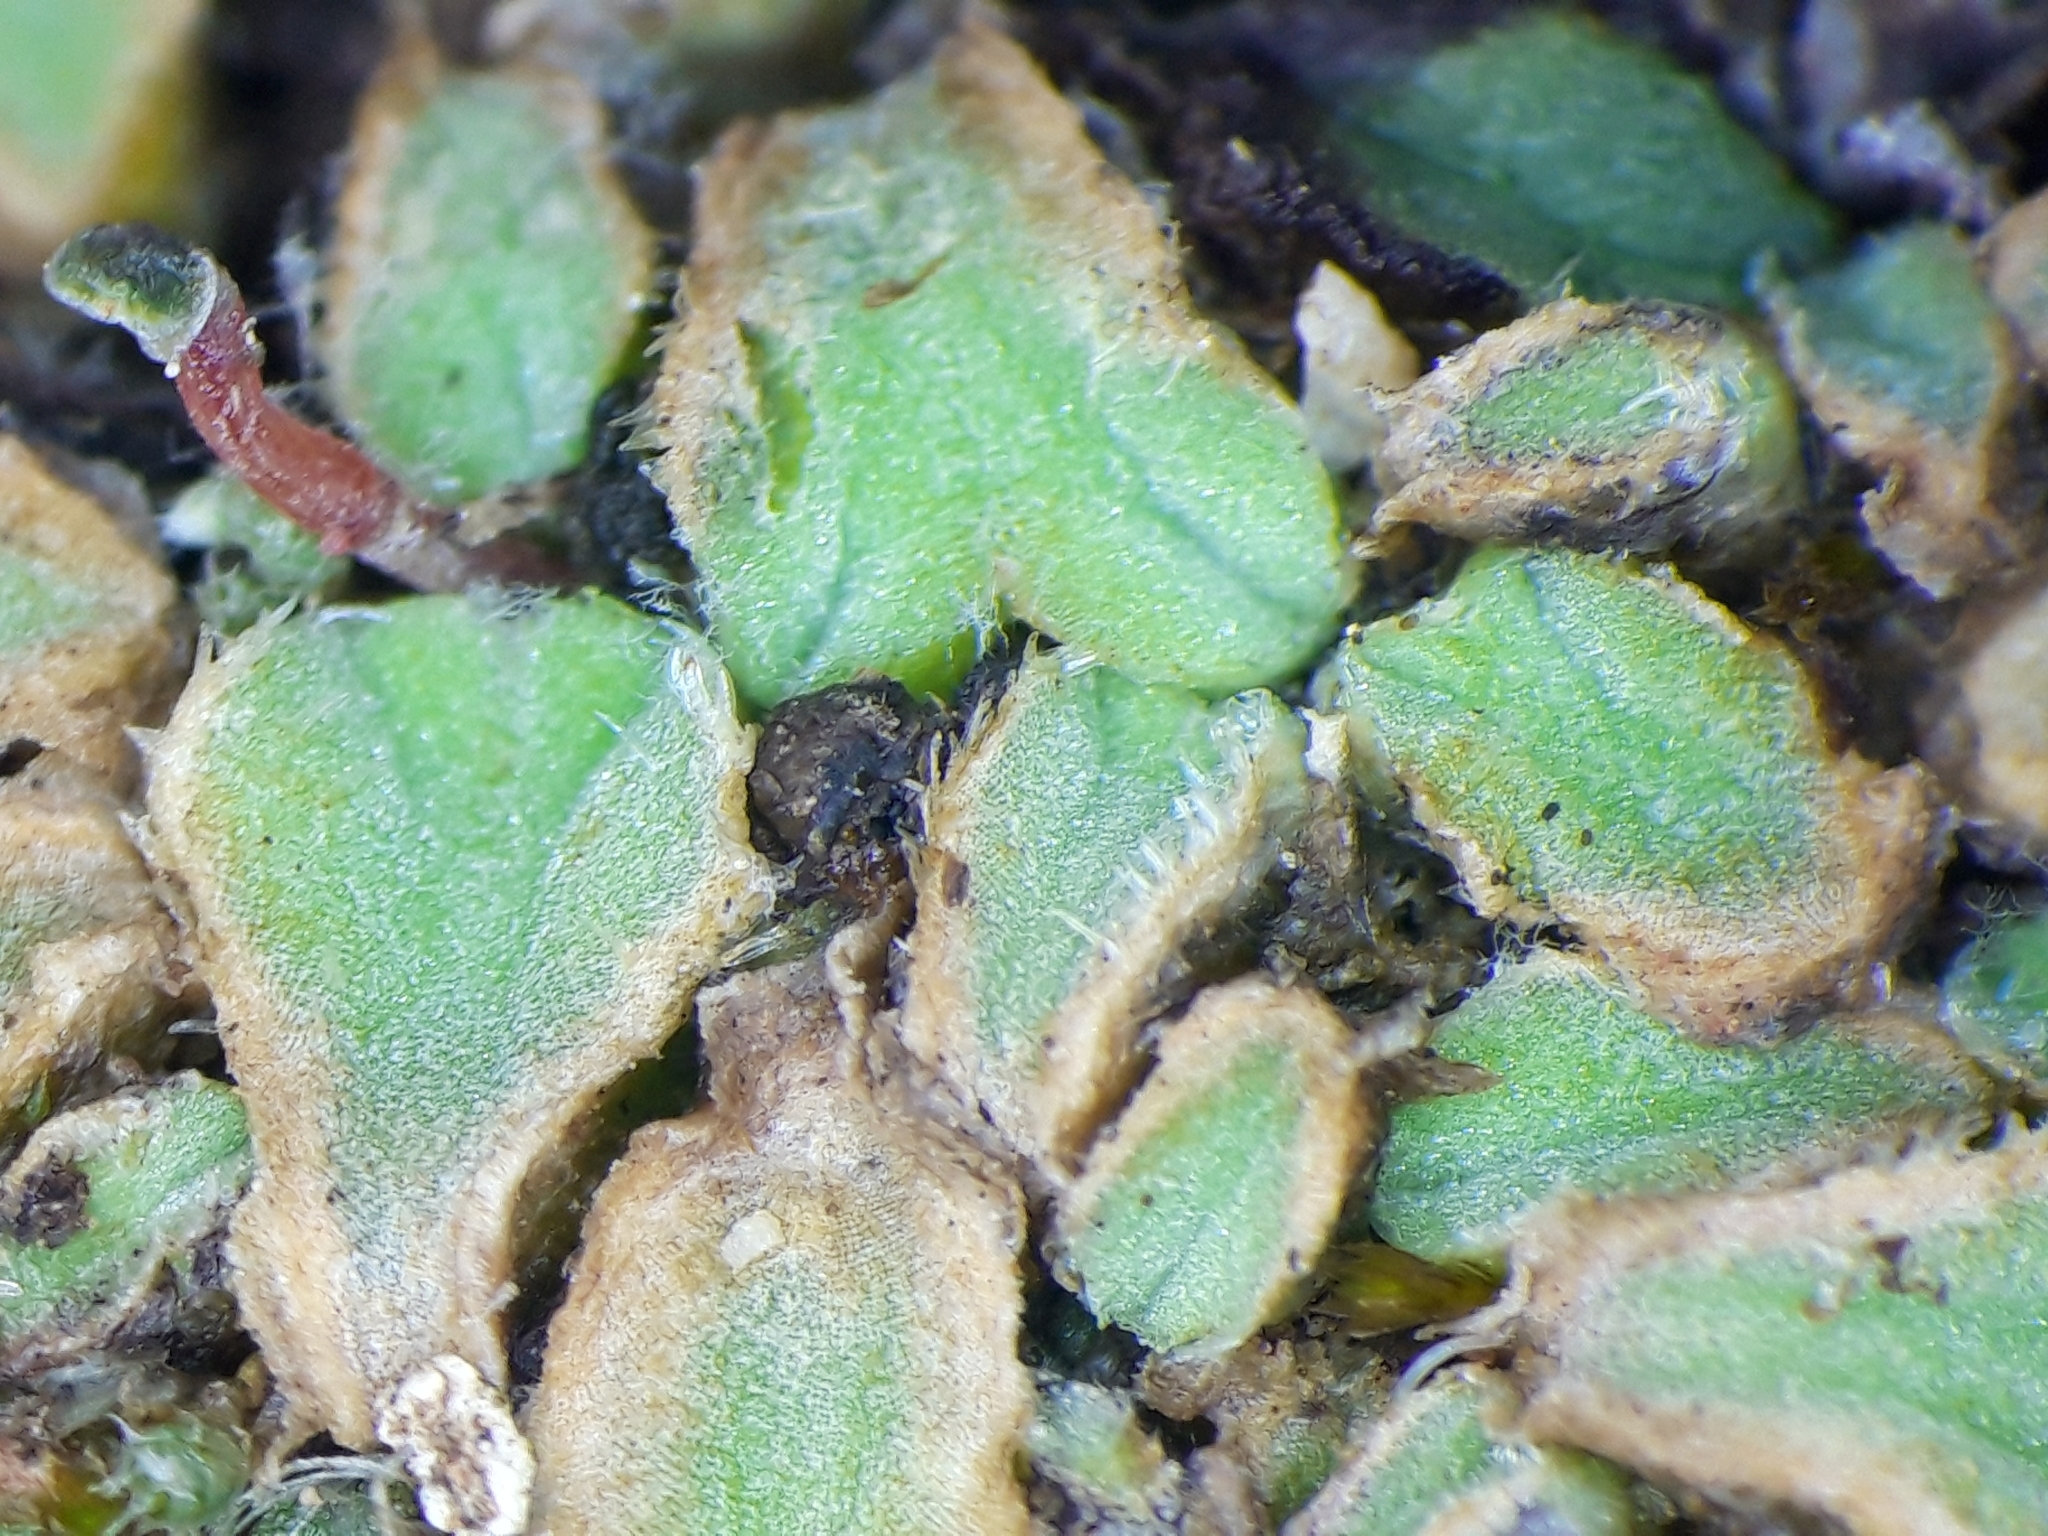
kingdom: Plantae
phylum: Marchantiophyta
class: Marchantiopsida
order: Marchantiales
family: Ricciaceae
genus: Riccia
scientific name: Riccia ciliifera
